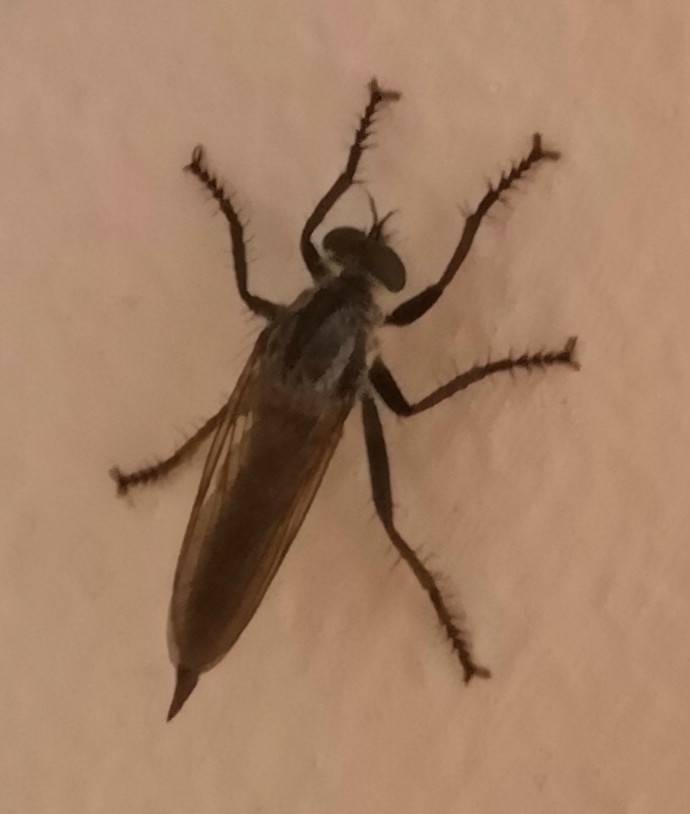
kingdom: Animalia
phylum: Arthropoda
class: Insecta
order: Diptera
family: Asilidae
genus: Eutolmus
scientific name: Eutolmus rufibarbis
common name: Golden-tabbed robberfly
